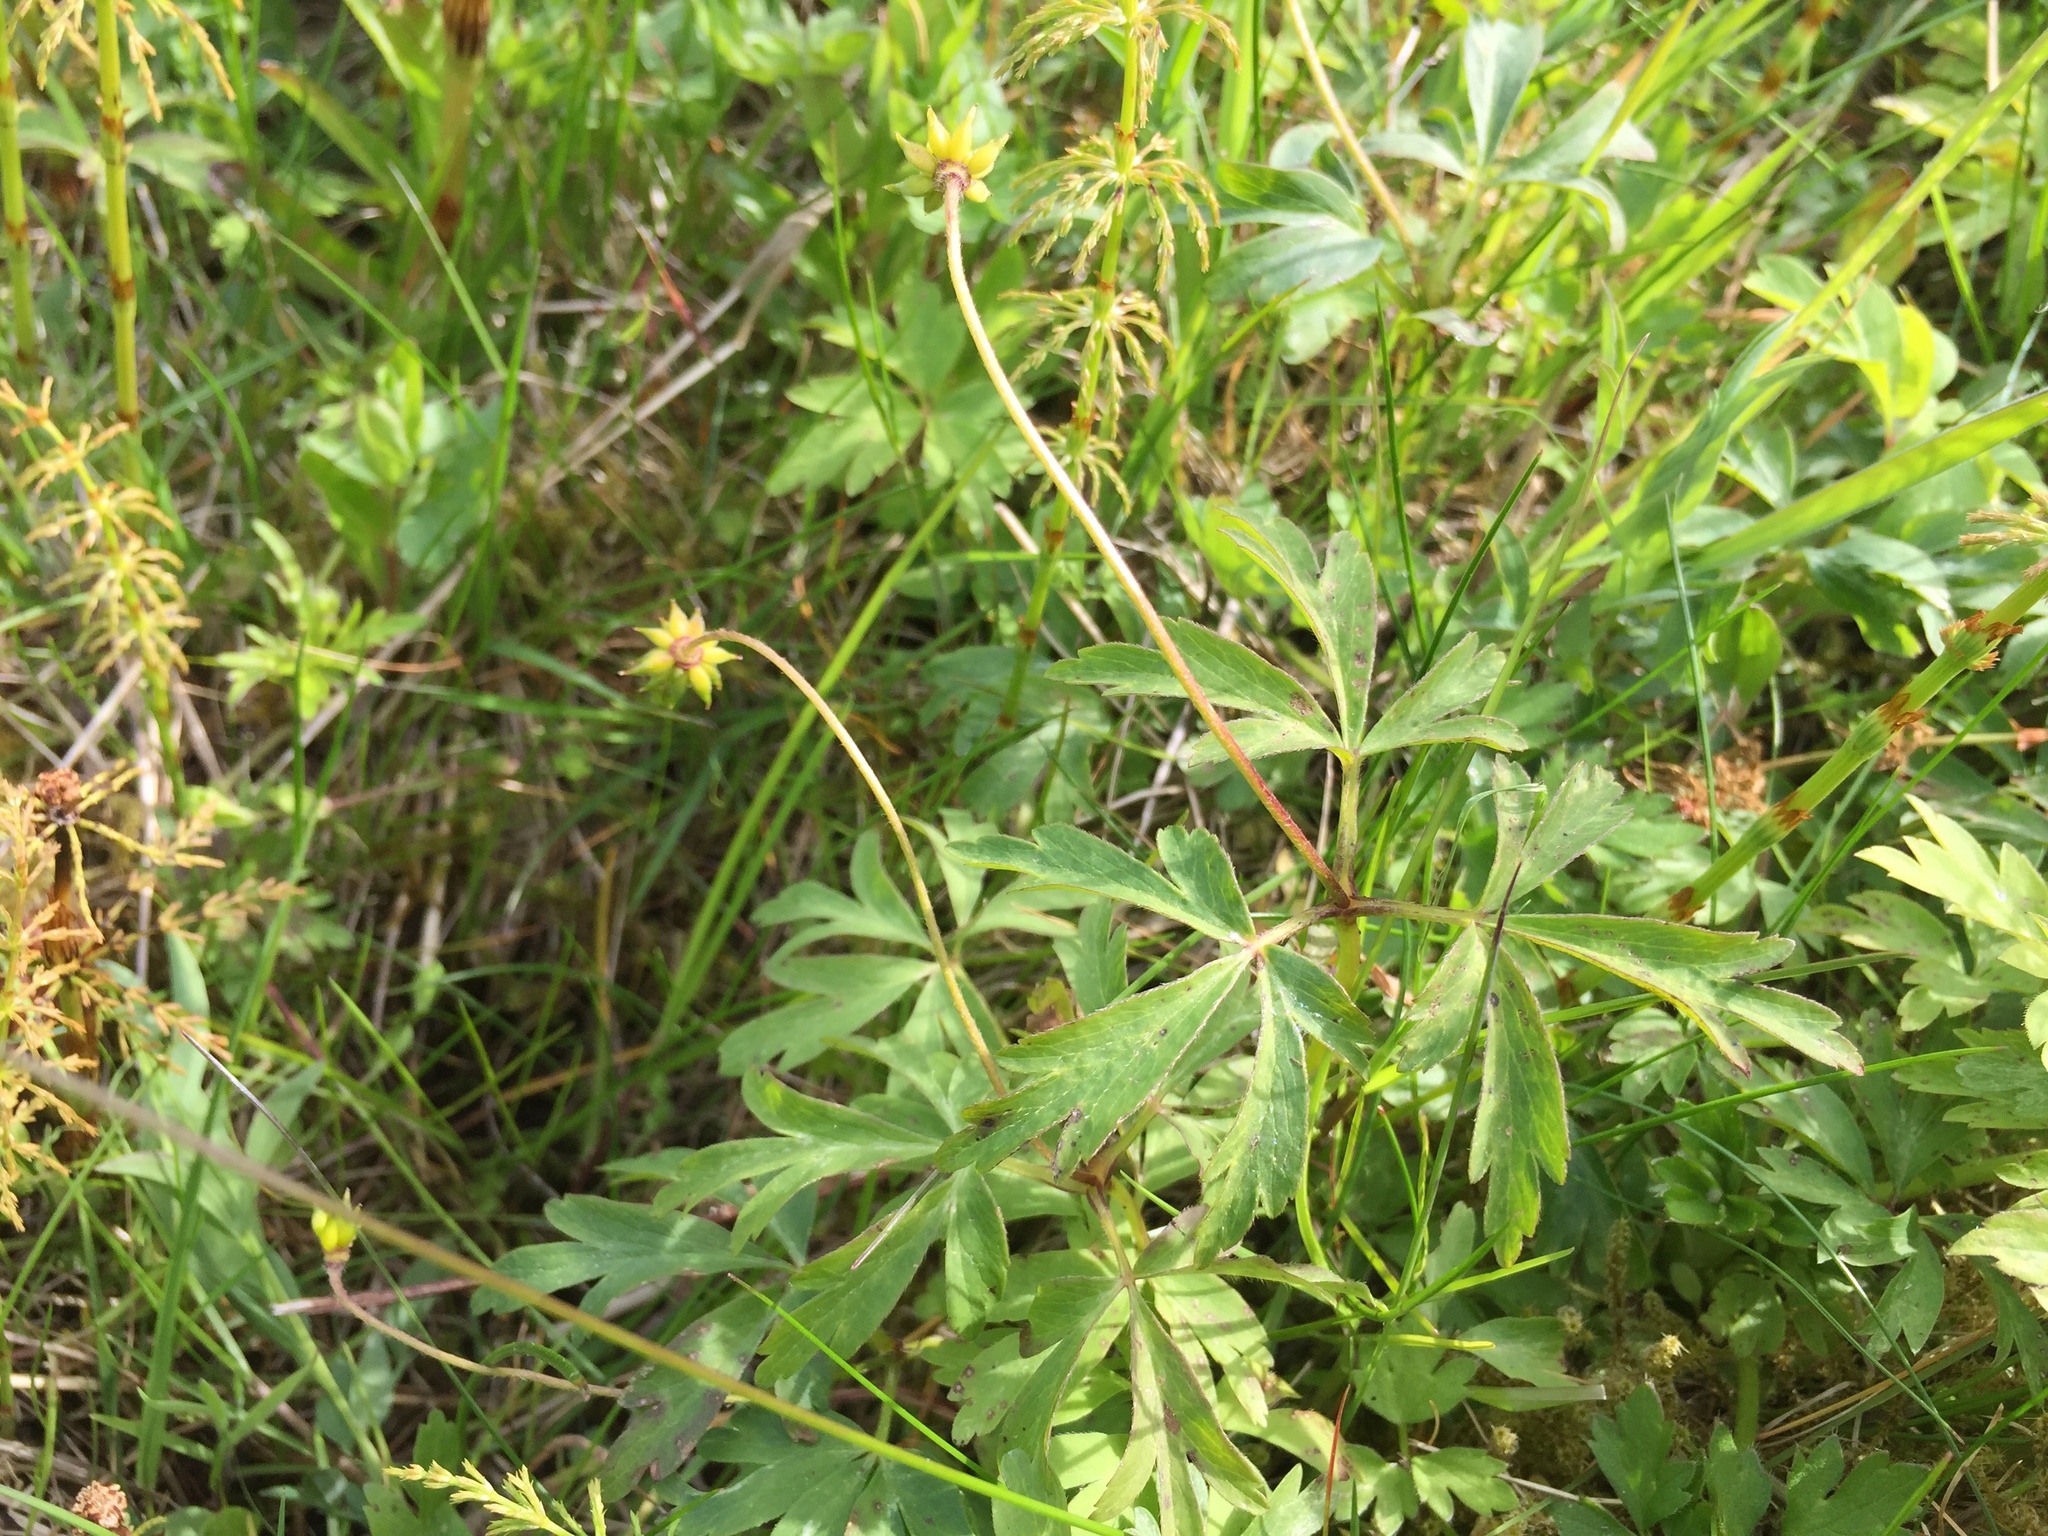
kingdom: Plantae
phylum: Tracheophyta
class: Magnoliopsida
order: Ranunculales
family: Ranunculaceae
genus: Anemone
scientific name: Anemone nemorosa
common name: Wood anemone
